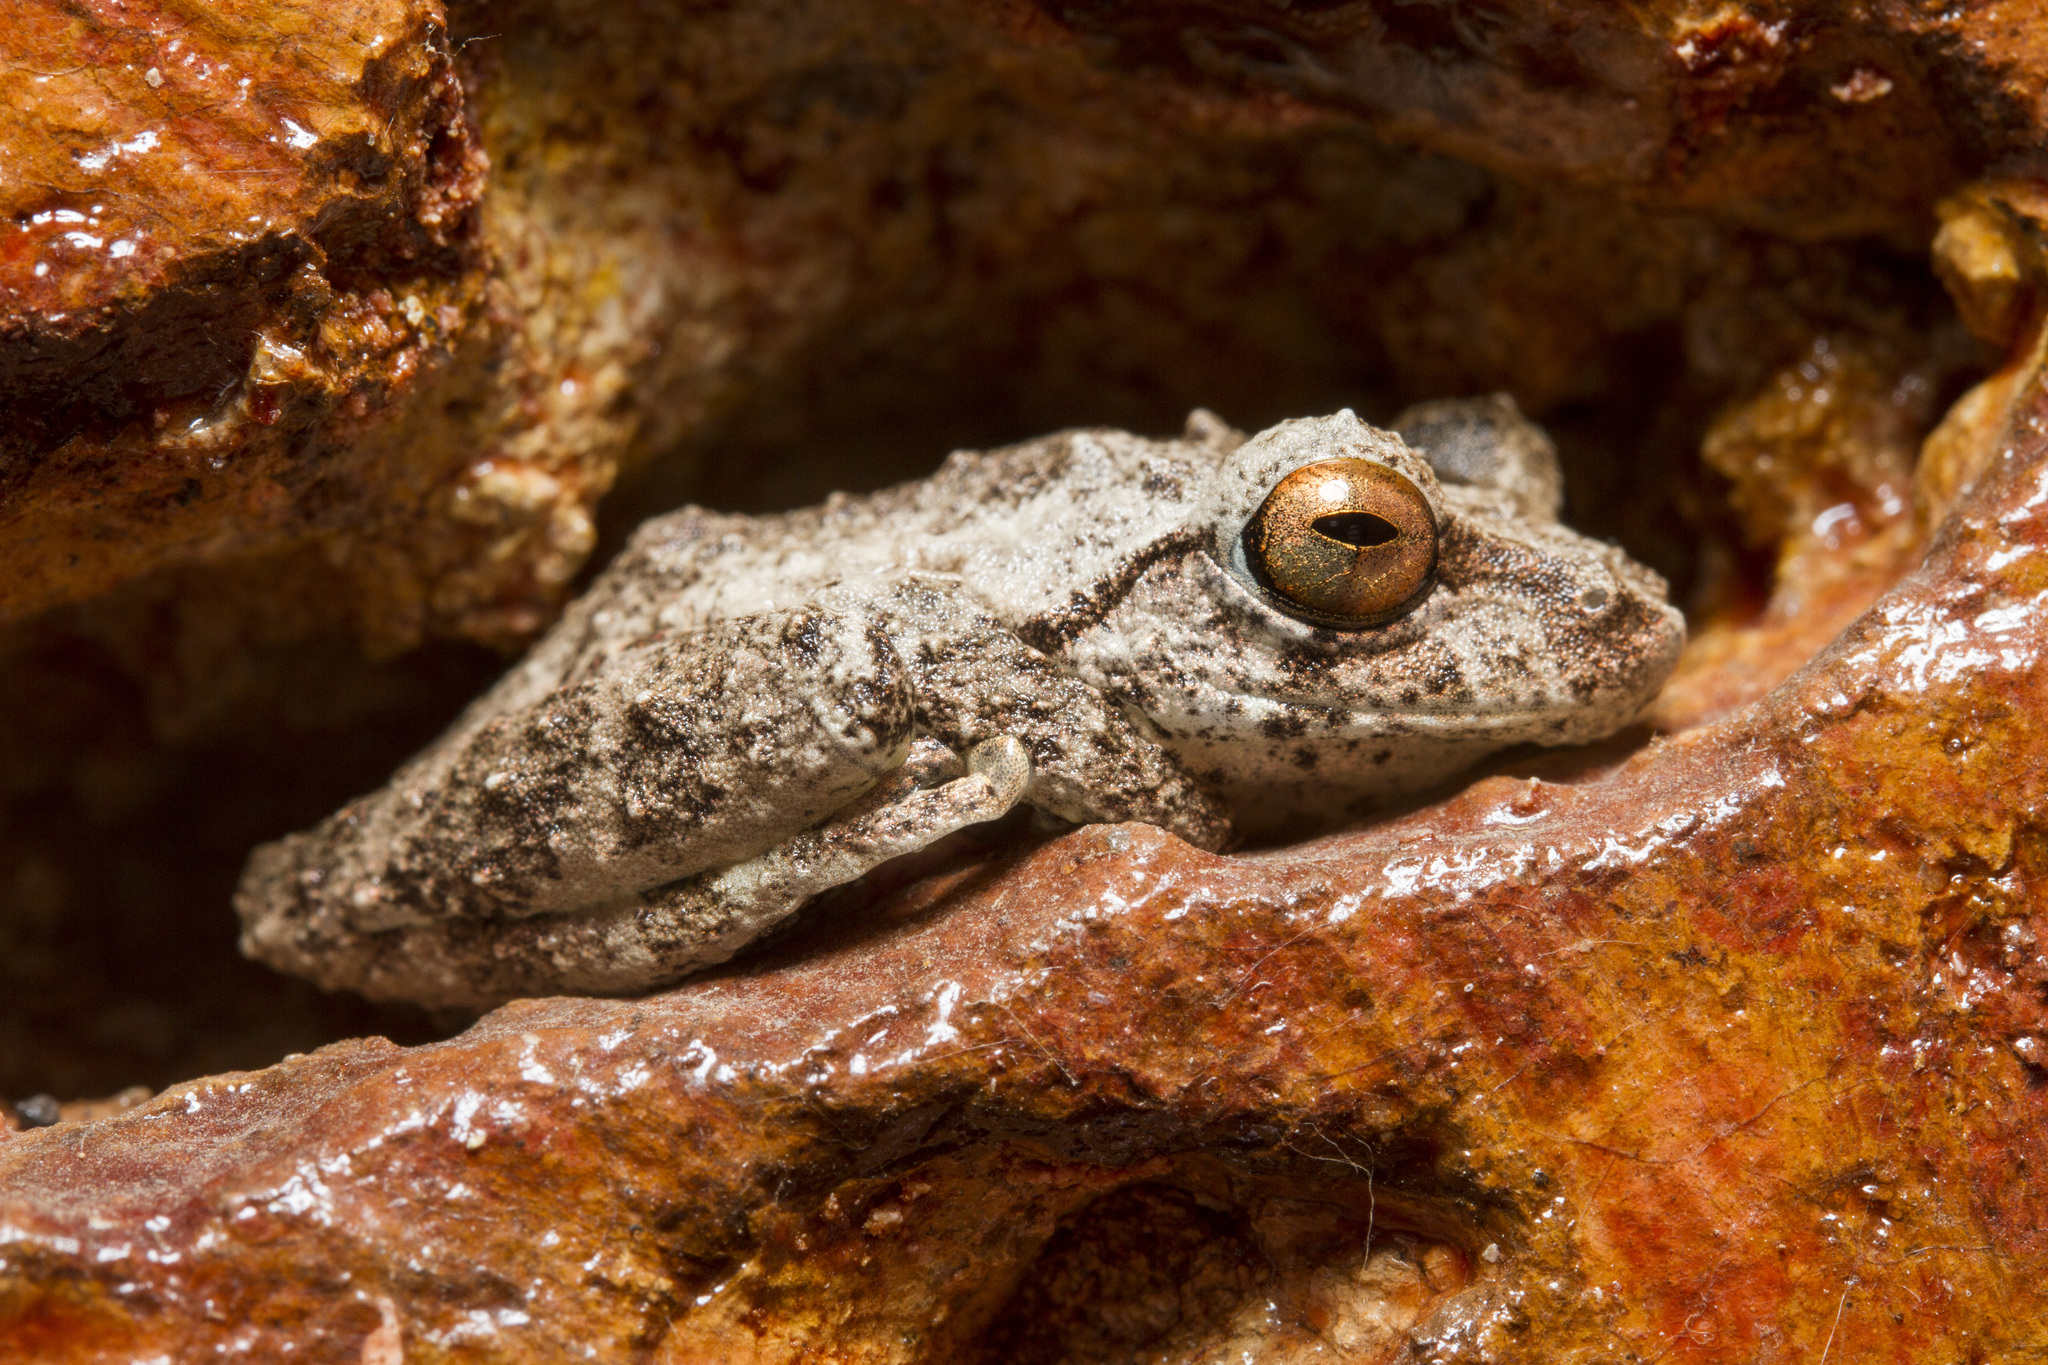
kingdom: Animalia
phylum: Chordata
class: Amphibia
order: Anura
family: Rhacophoridae
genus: Raorchestes
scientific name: Raorchestes anili
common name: Anil's bush frog
